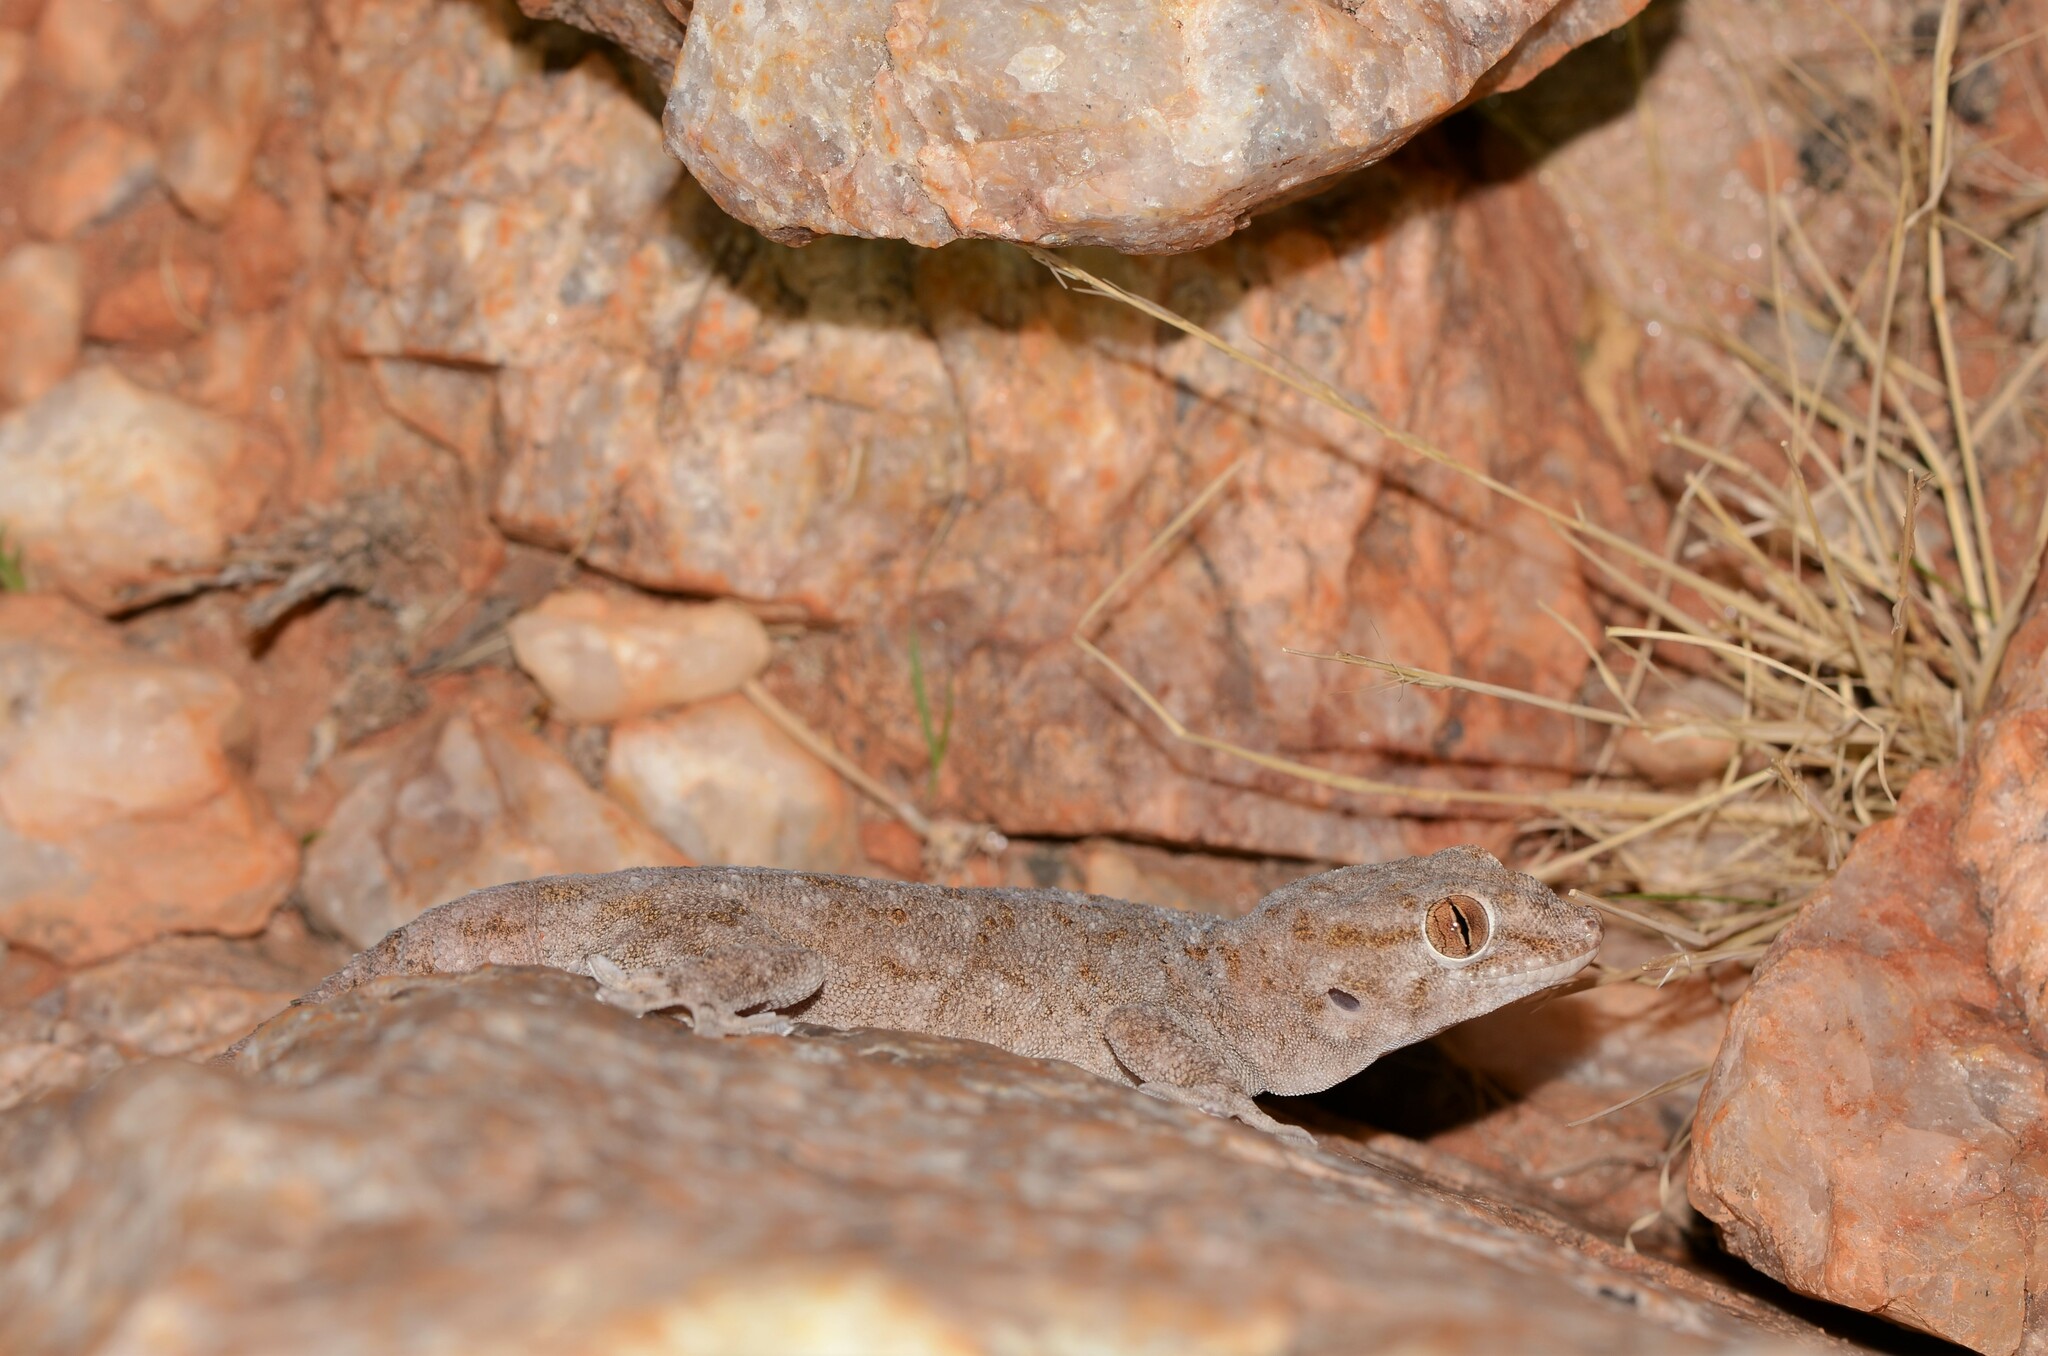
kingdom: Animalia
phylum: Chordata
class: Squamata
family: Gekkonidae
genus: Pachydactylus
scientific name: Pachydactylus haackei
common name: Haacke's gecko
